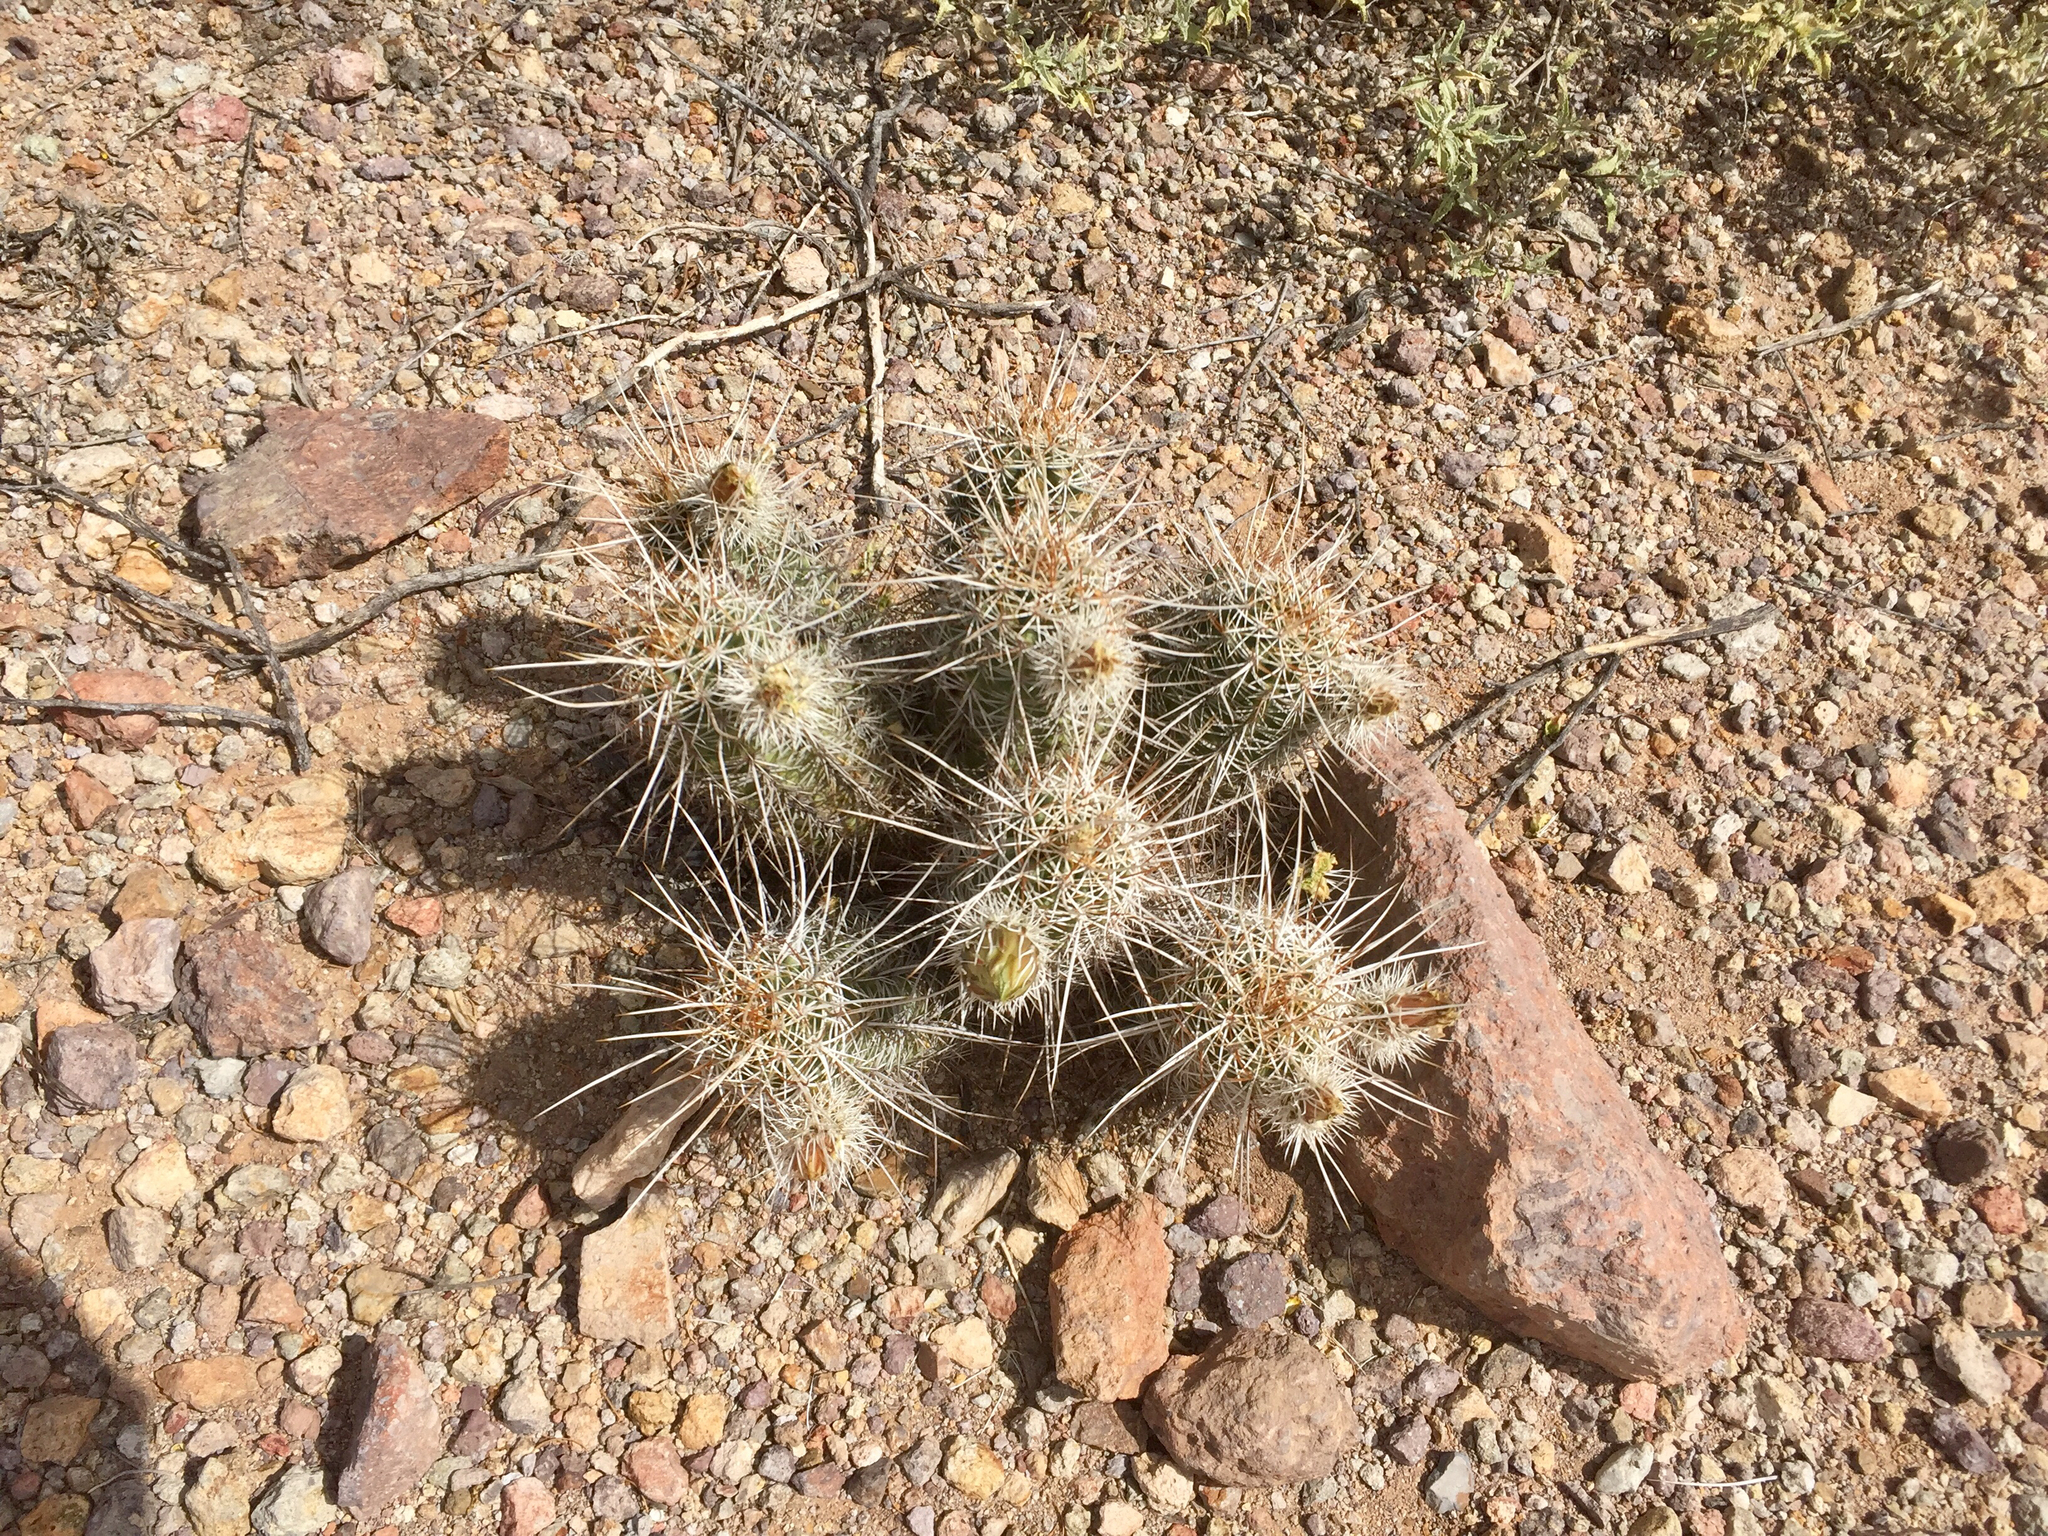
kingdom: Plantae
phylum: Tracheophyta
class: Magnoliopsida
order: Caryophyllales
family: Cactaceae
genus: Echinocereus
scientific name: Echinocereus fasciculatus
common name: Bundle hedgehog
